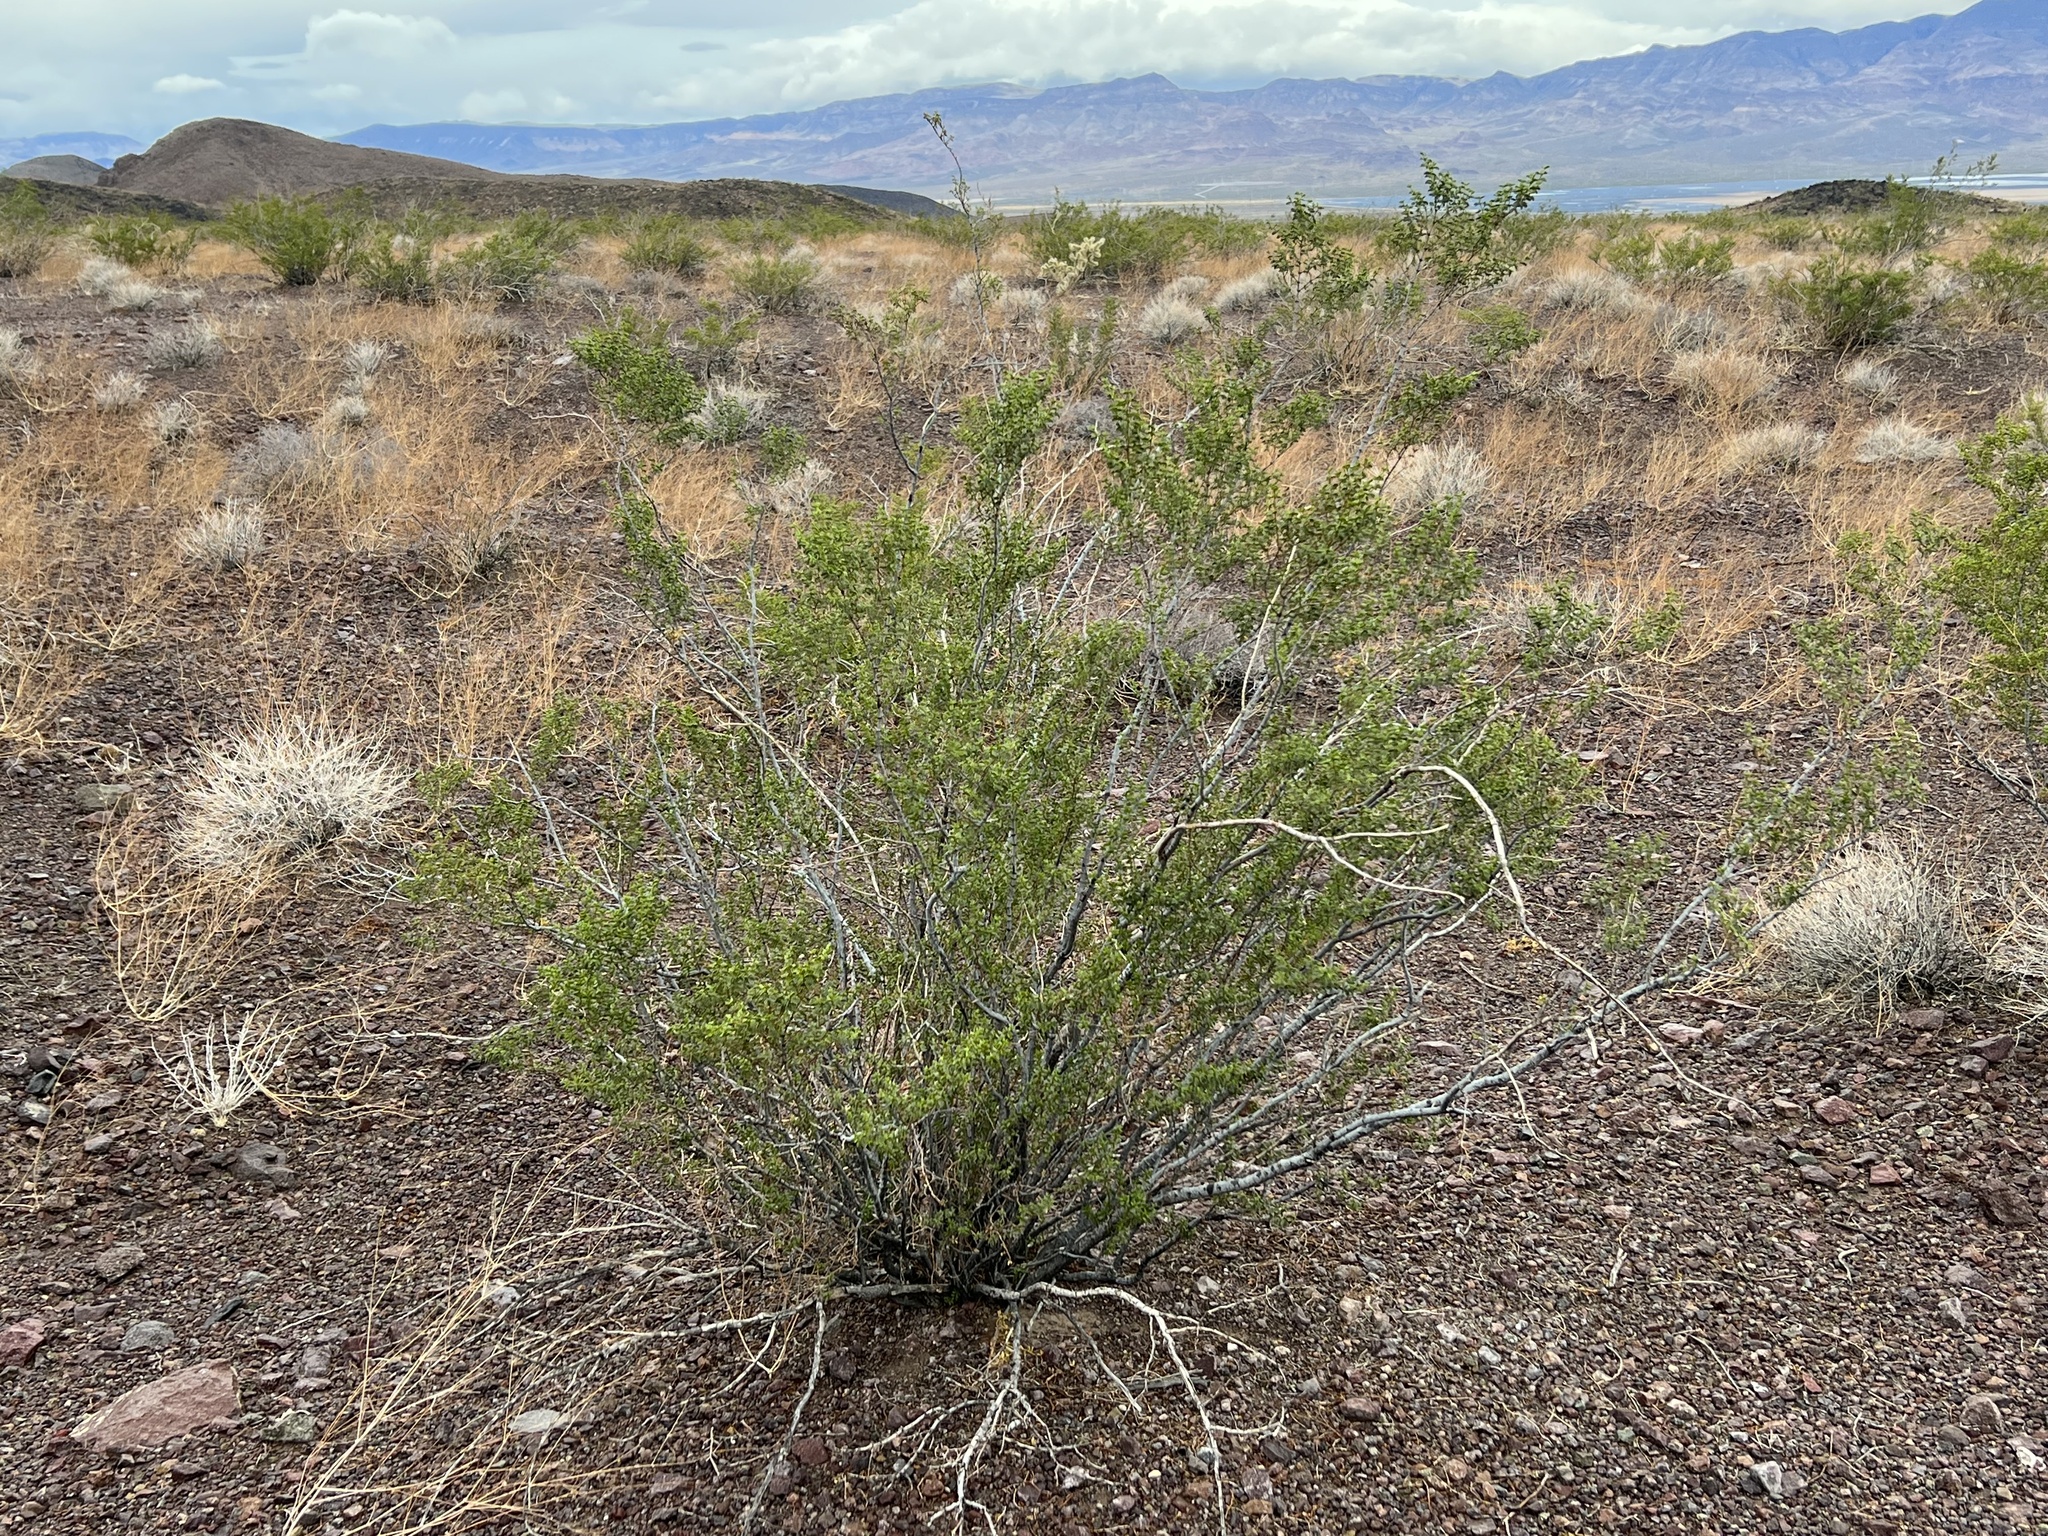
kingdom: Plantae
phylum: Tracheophyta
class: Magnoliopsida
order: Zygophyllales
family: Zygophyllaceae
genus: Larrea
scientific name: Larrea tridentata
